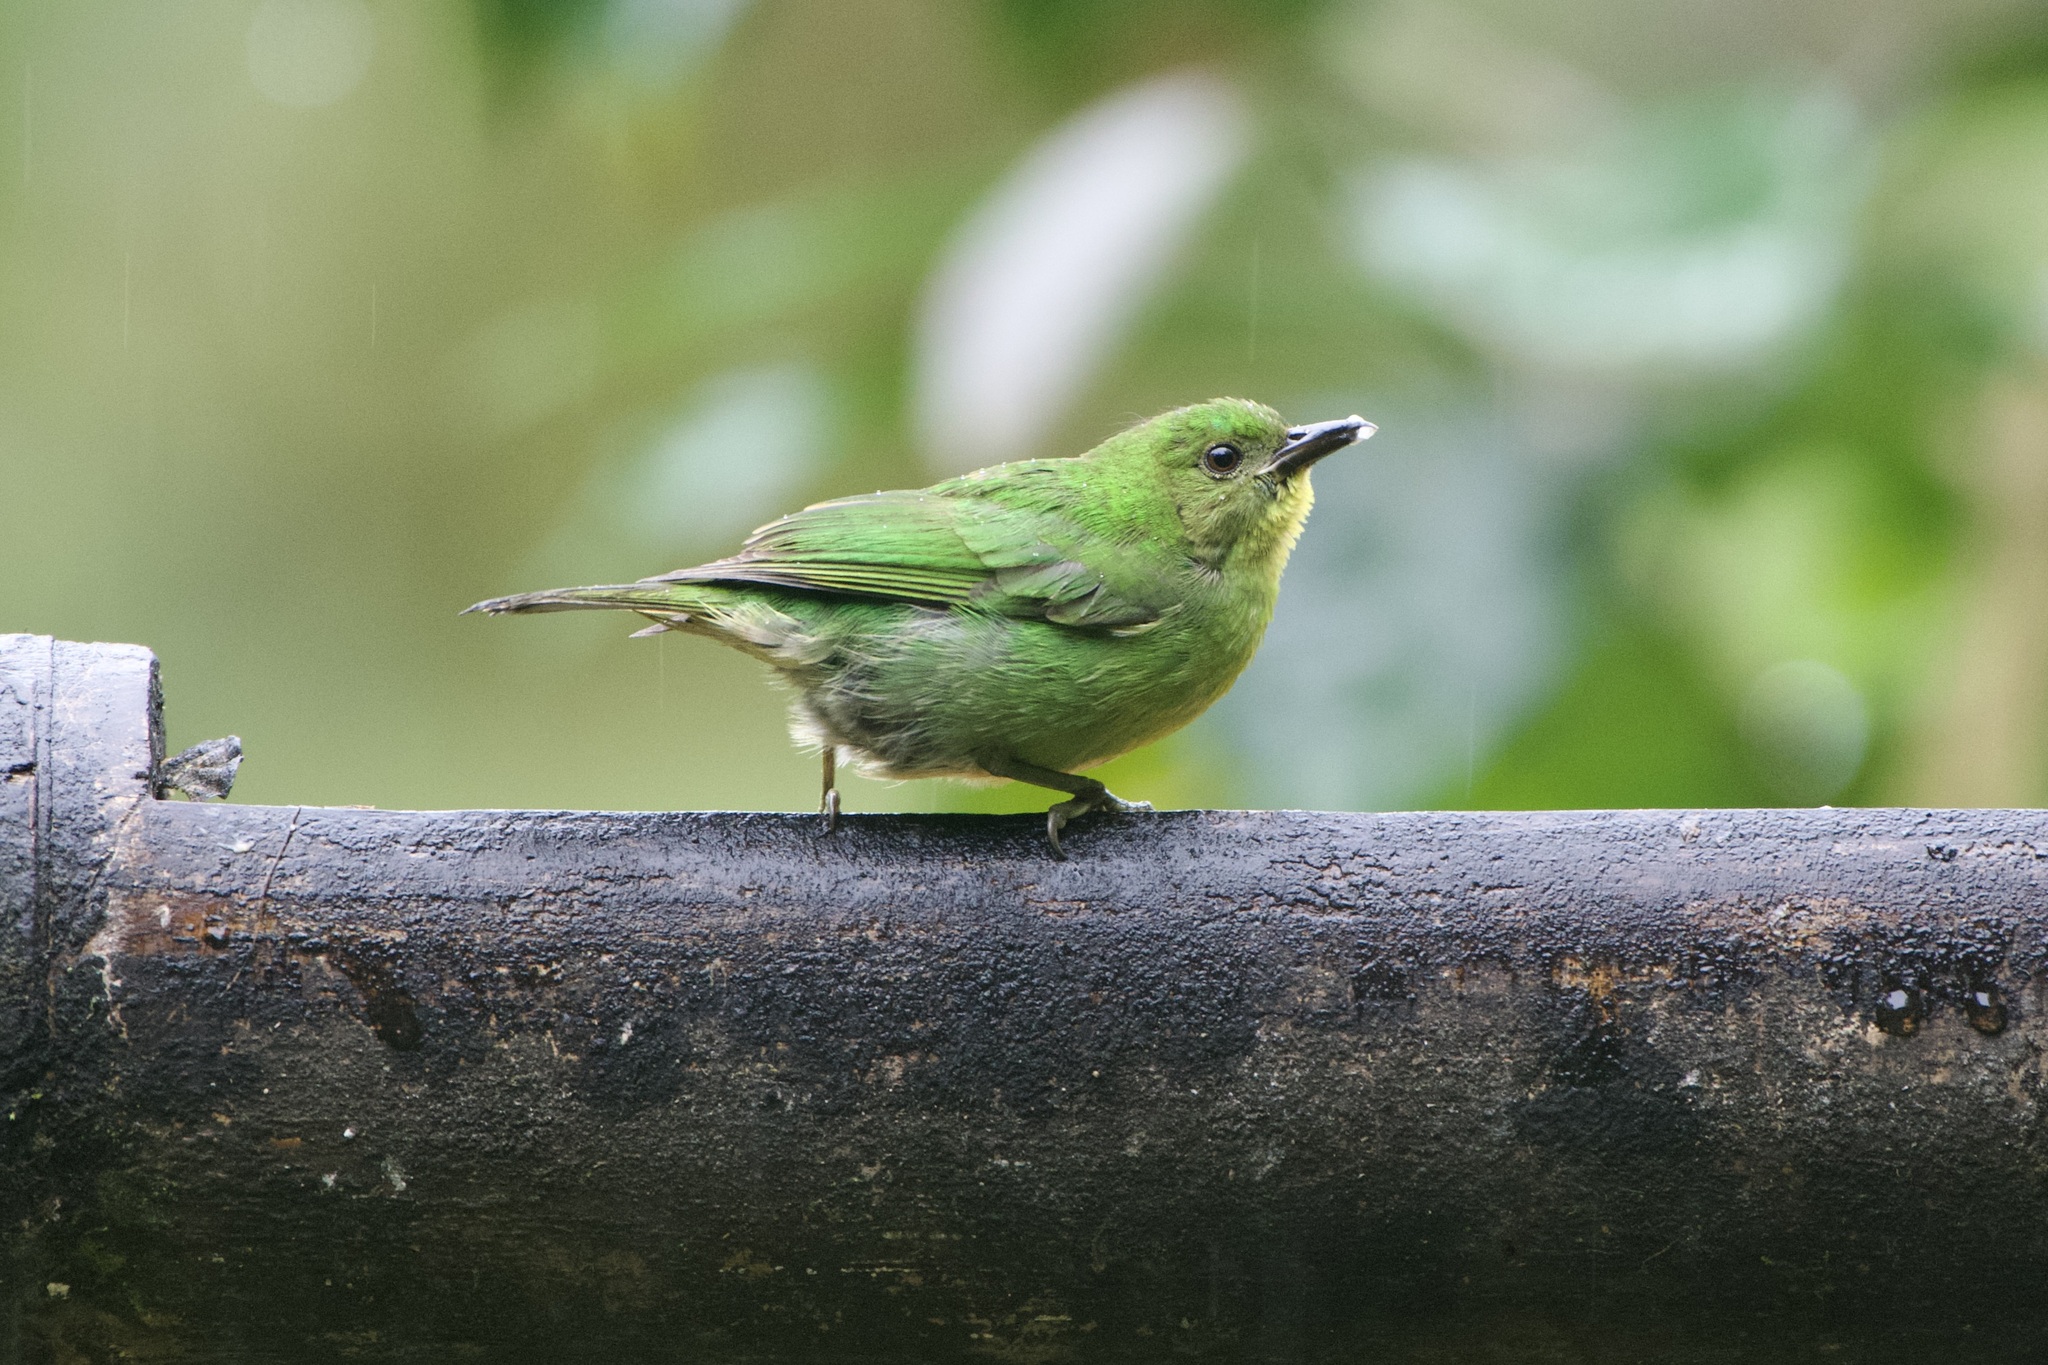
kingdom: Animalia
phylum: Chordata
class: Aves
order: Passeriformes
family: Thraupidae
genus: Chlorophanes
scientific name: Chlorophanes spiza
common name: Green honeycreeper
